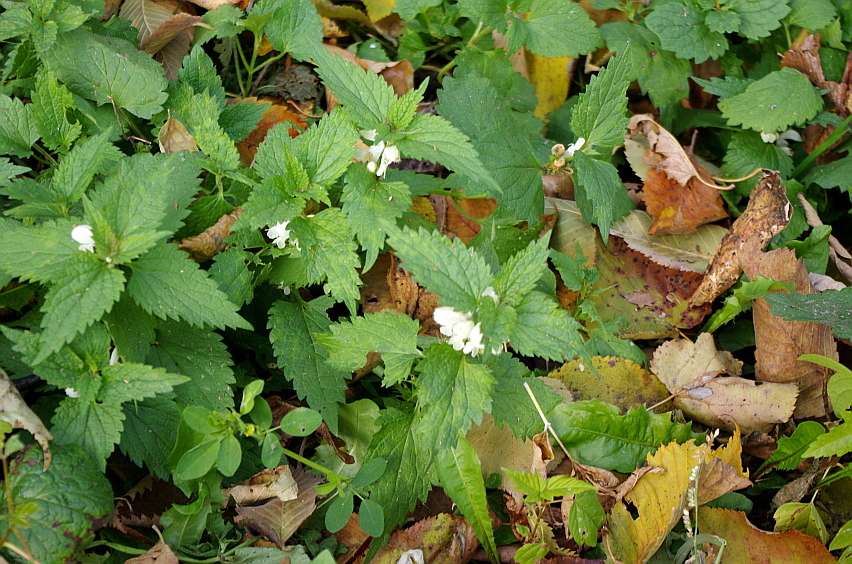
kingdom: Plantae
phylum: Tracheophyta
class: Magnoliopsida
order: Lamiales
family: Lamiaceae
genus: Lamium
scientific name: Lamium album
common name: White dead-nettle
